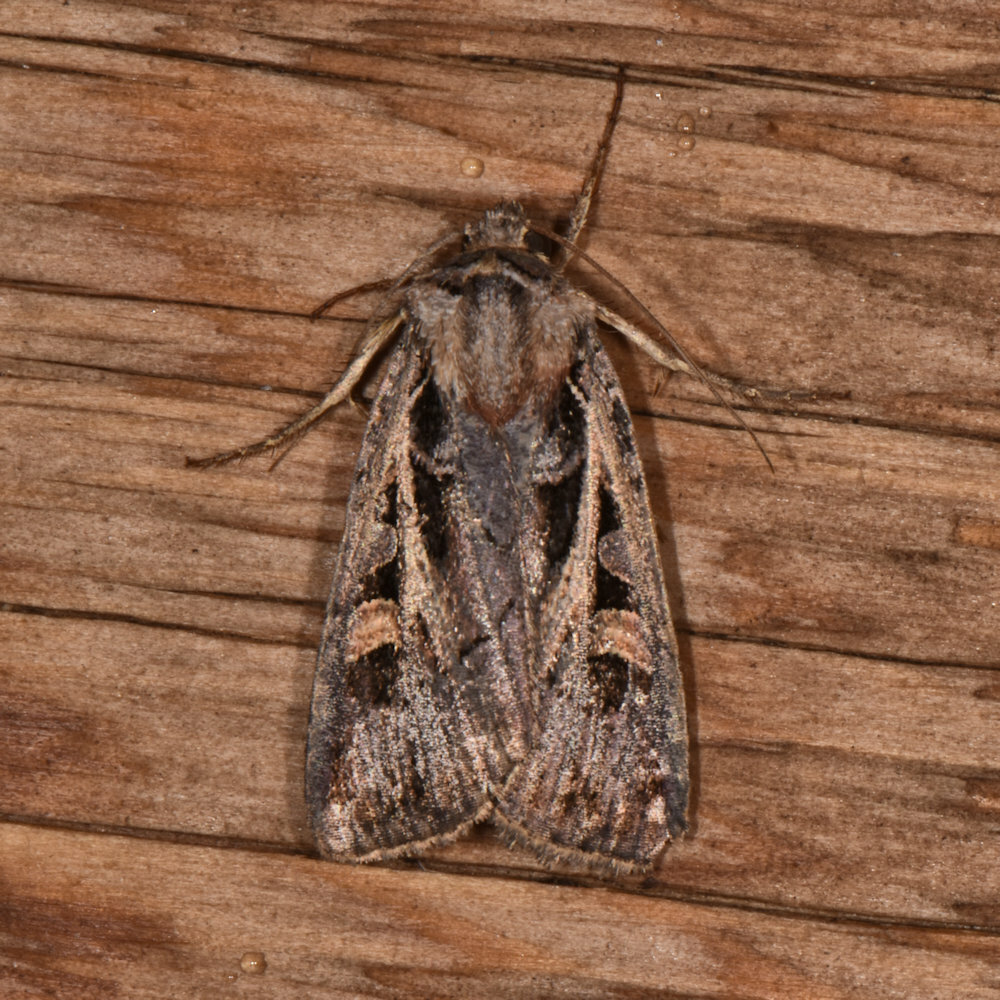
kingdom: Animalia
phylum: Arthropoda
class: Insecta
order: Lepidoptera
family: Noctuidae
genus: Feltia
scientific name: Feltia herilis
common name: Master's dart
